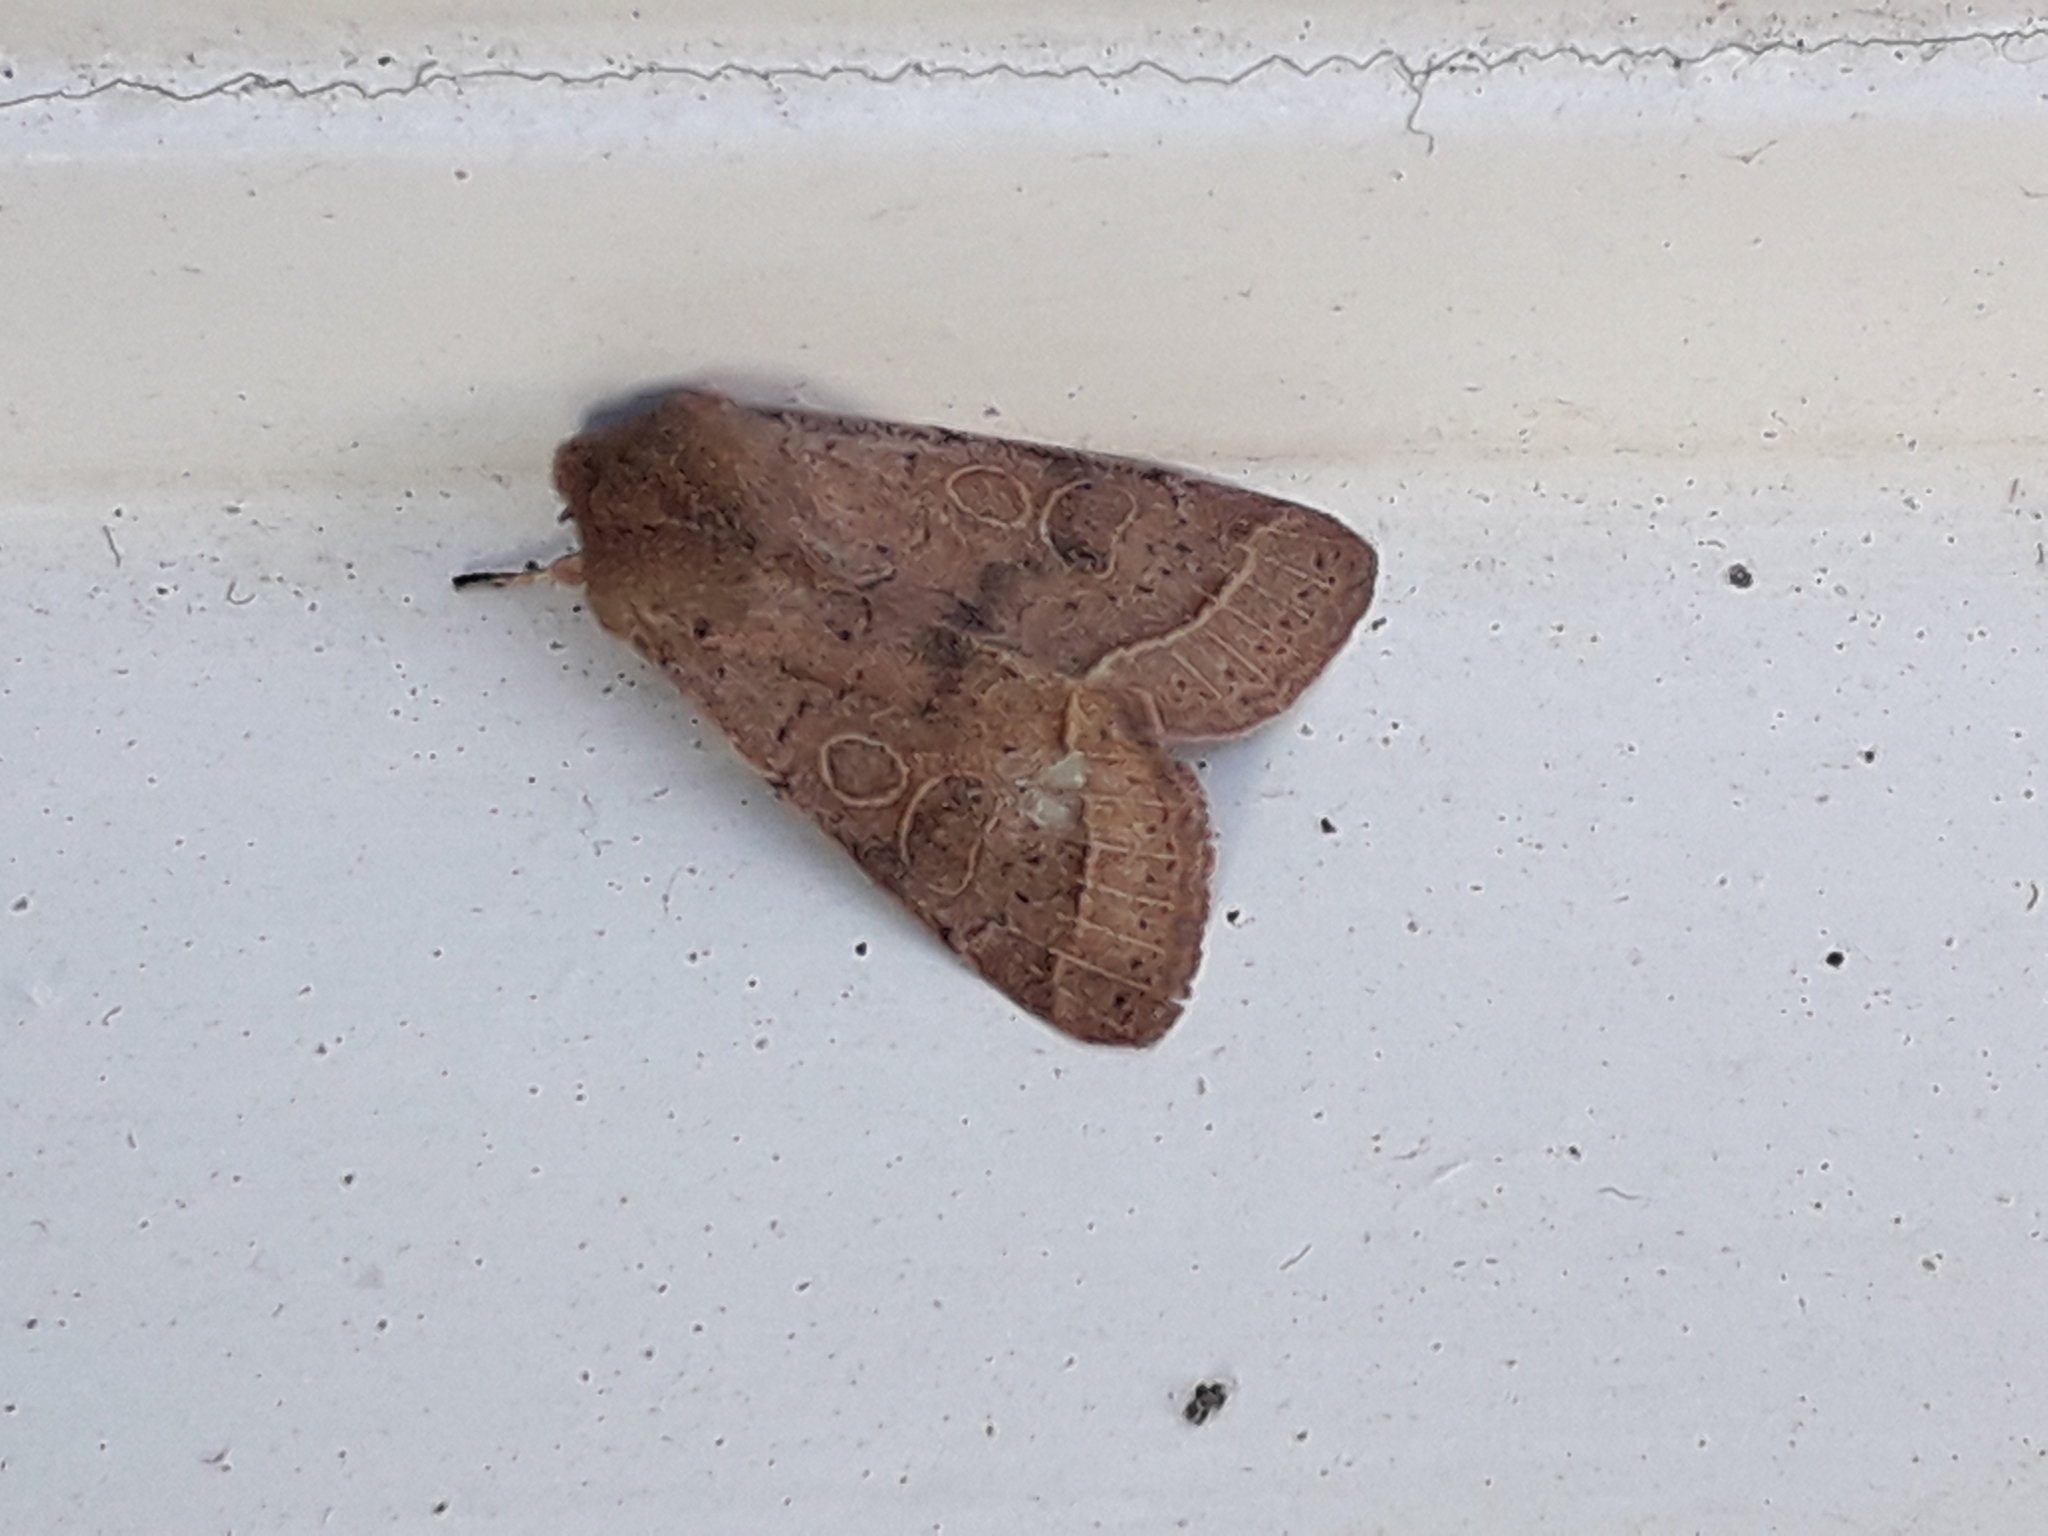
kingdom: Animalia
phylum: Arthropoda
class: Insecta
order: Lepidoptera
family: Noctuidae
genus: Orthosia
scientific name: Orthosia cerasi
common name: Common quaker
